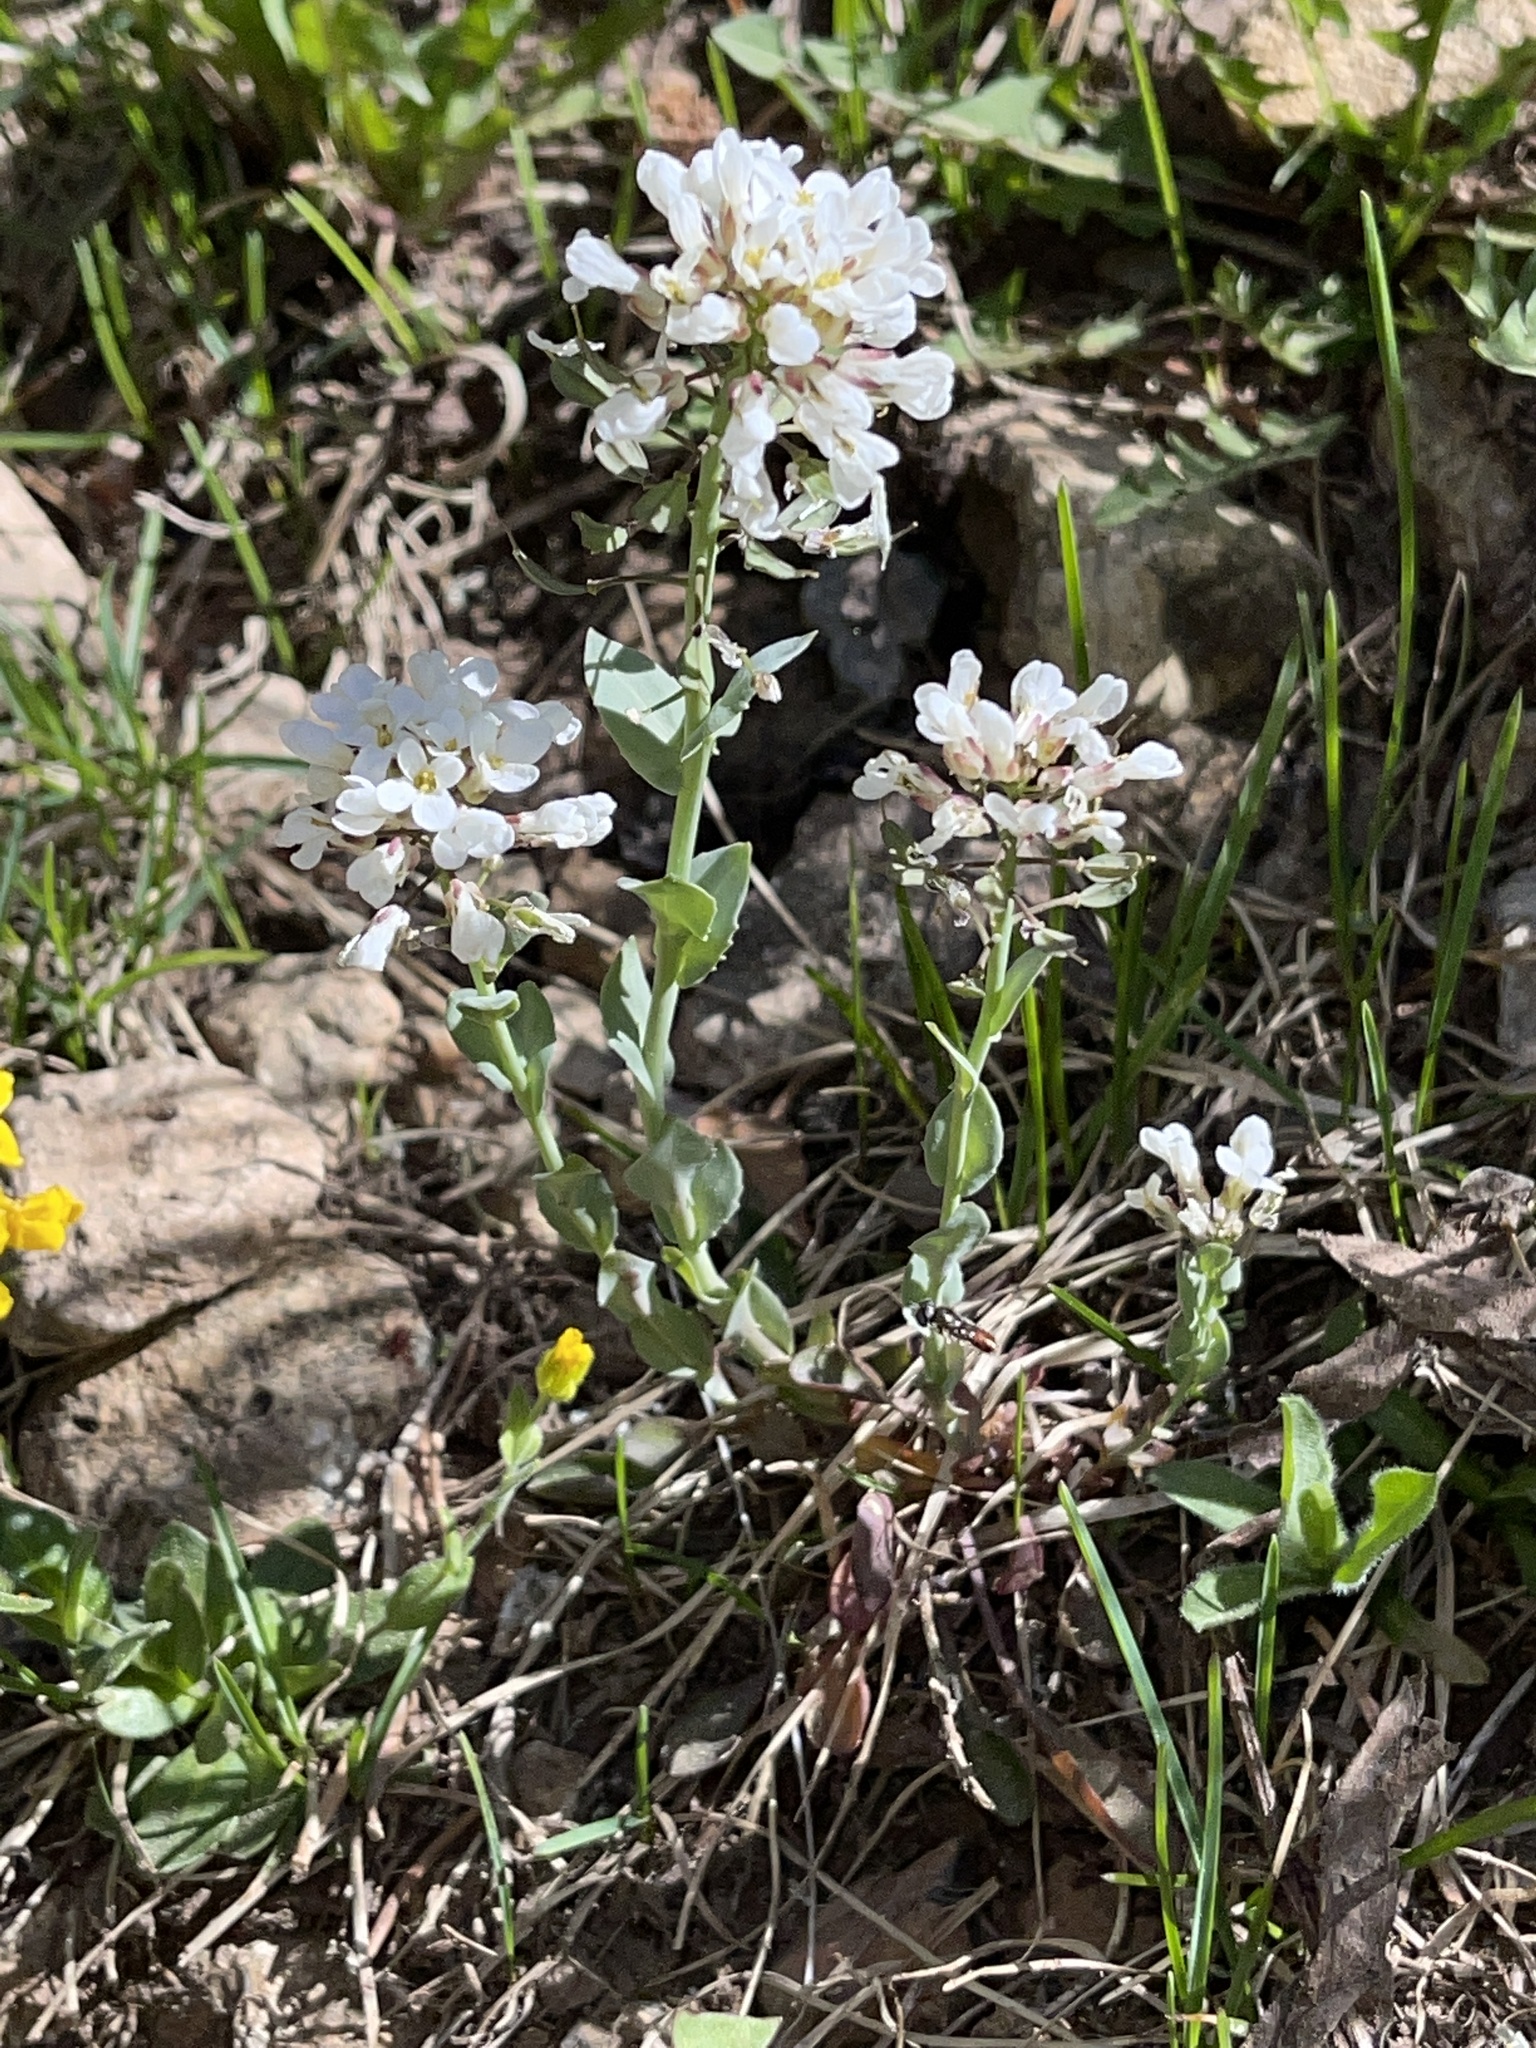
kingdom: Plantae
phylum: Tracheophyta
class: Magnoliopsida
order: Brassicales
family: Brassicaceae
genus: Noccaea
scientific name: Noccaea fendleri
